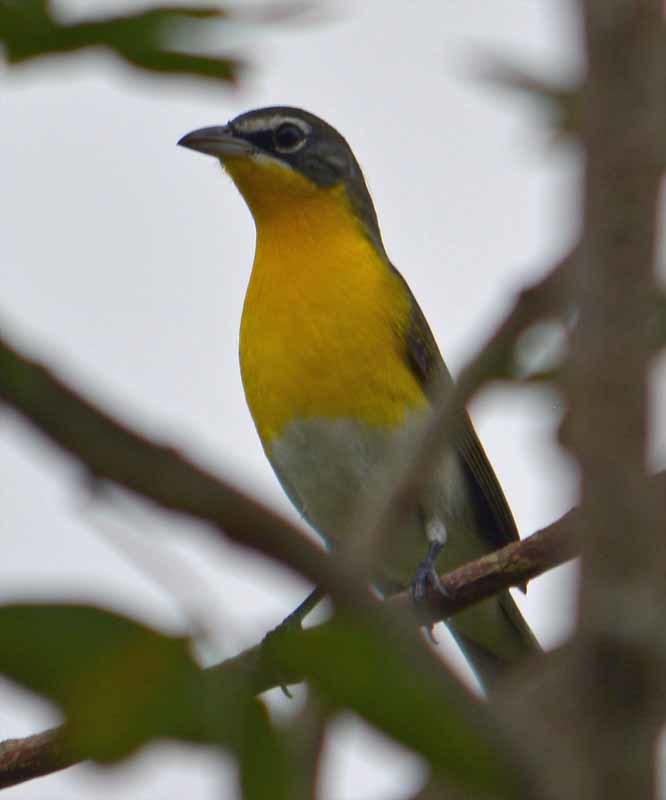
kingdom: Animalia
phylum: Chordata
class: Aves
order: Passeriformes
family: Parulidae
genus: Icteria
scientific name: Icteria virens
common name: Yellow-breasted chat
